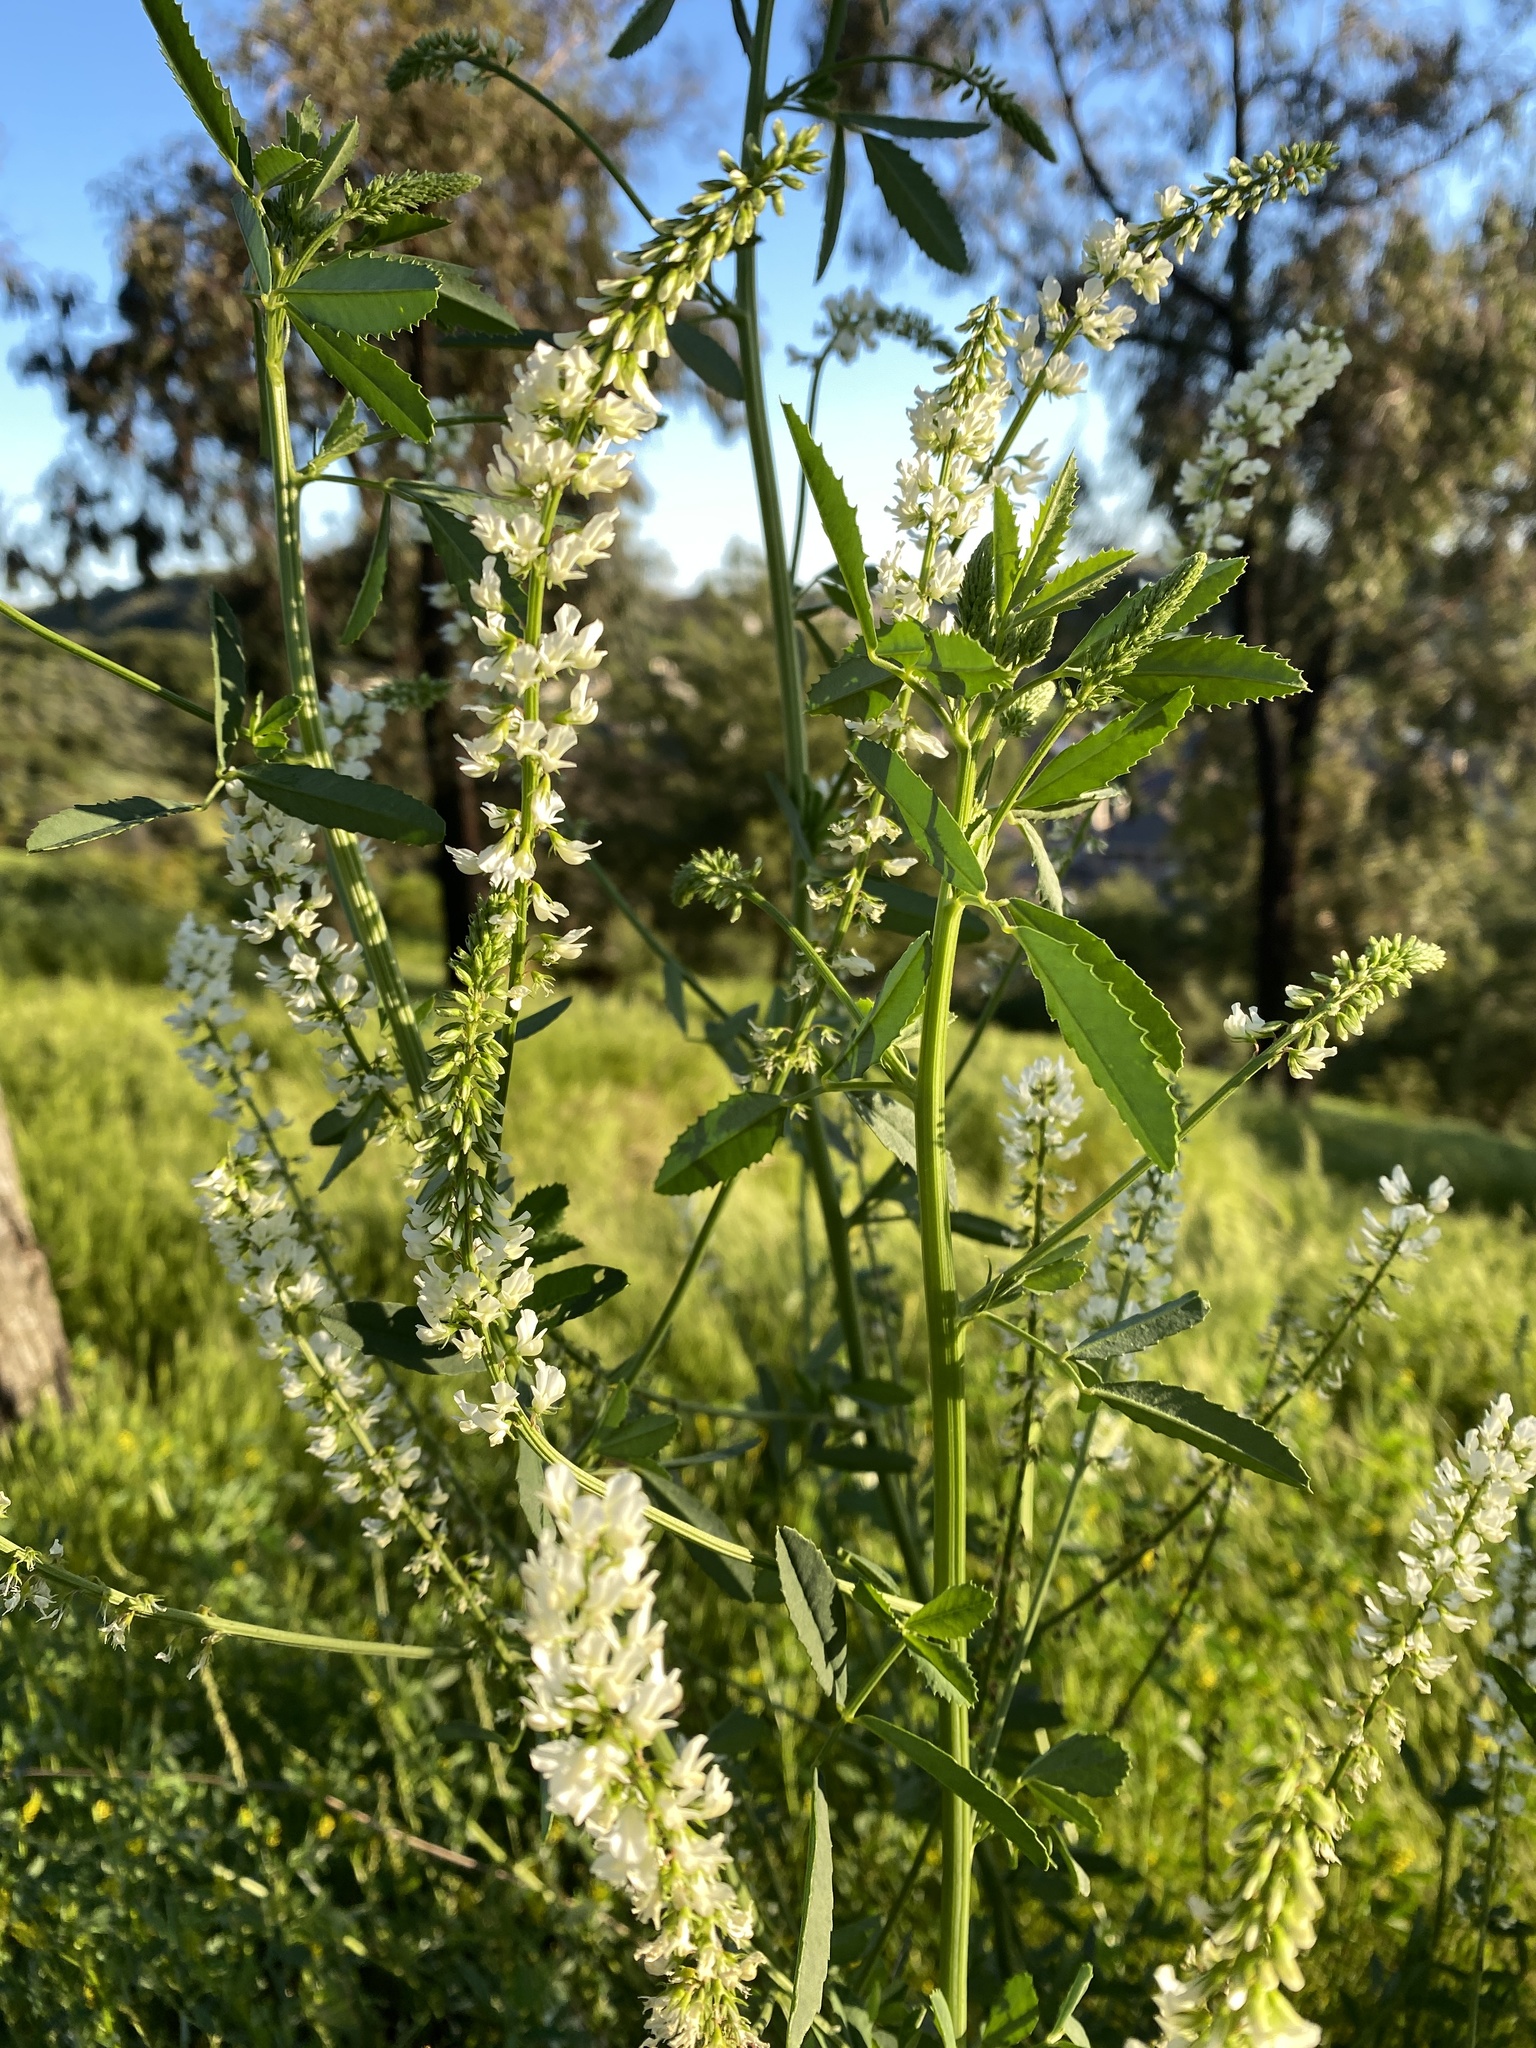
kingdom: Plantae
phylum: Tracheophyta
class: Magnoliopsida
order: Fabales
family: Fabaceae
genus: Melilotus
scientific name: Melilotus albus
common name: White melilot
